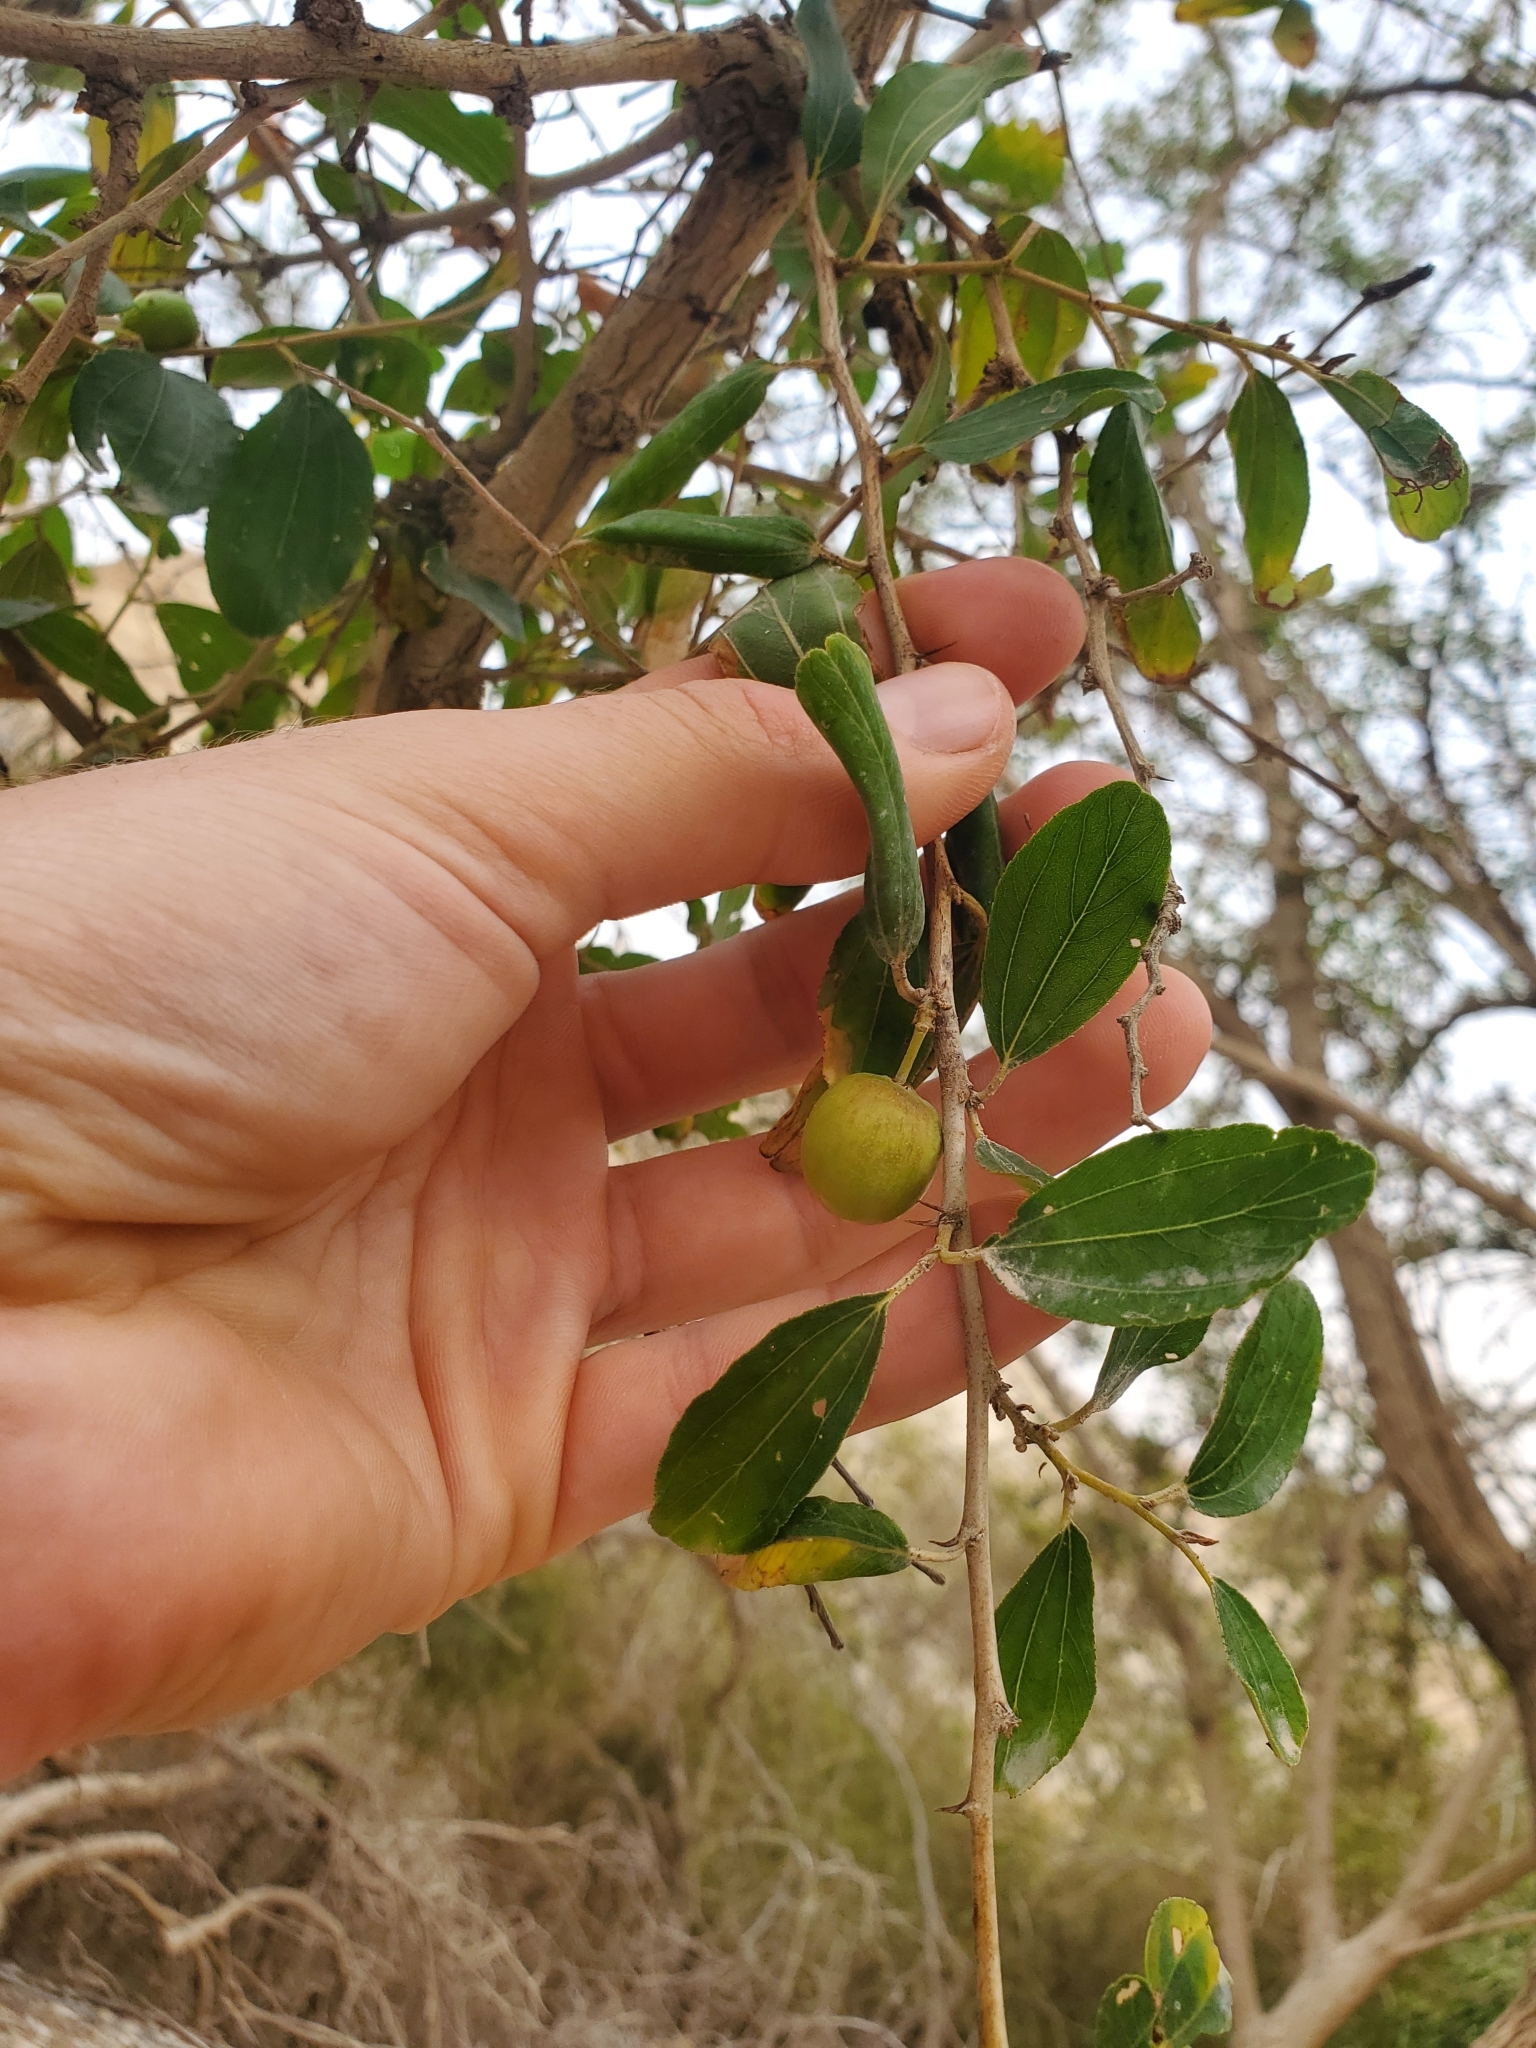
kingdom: Plantae
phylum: Tracheophyta
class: Magnoliopsida
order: Rosales
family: Rhamnaceae
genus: Ziziphus
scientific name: Ziziphus spina-christi
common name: Syrian christ-thorn
